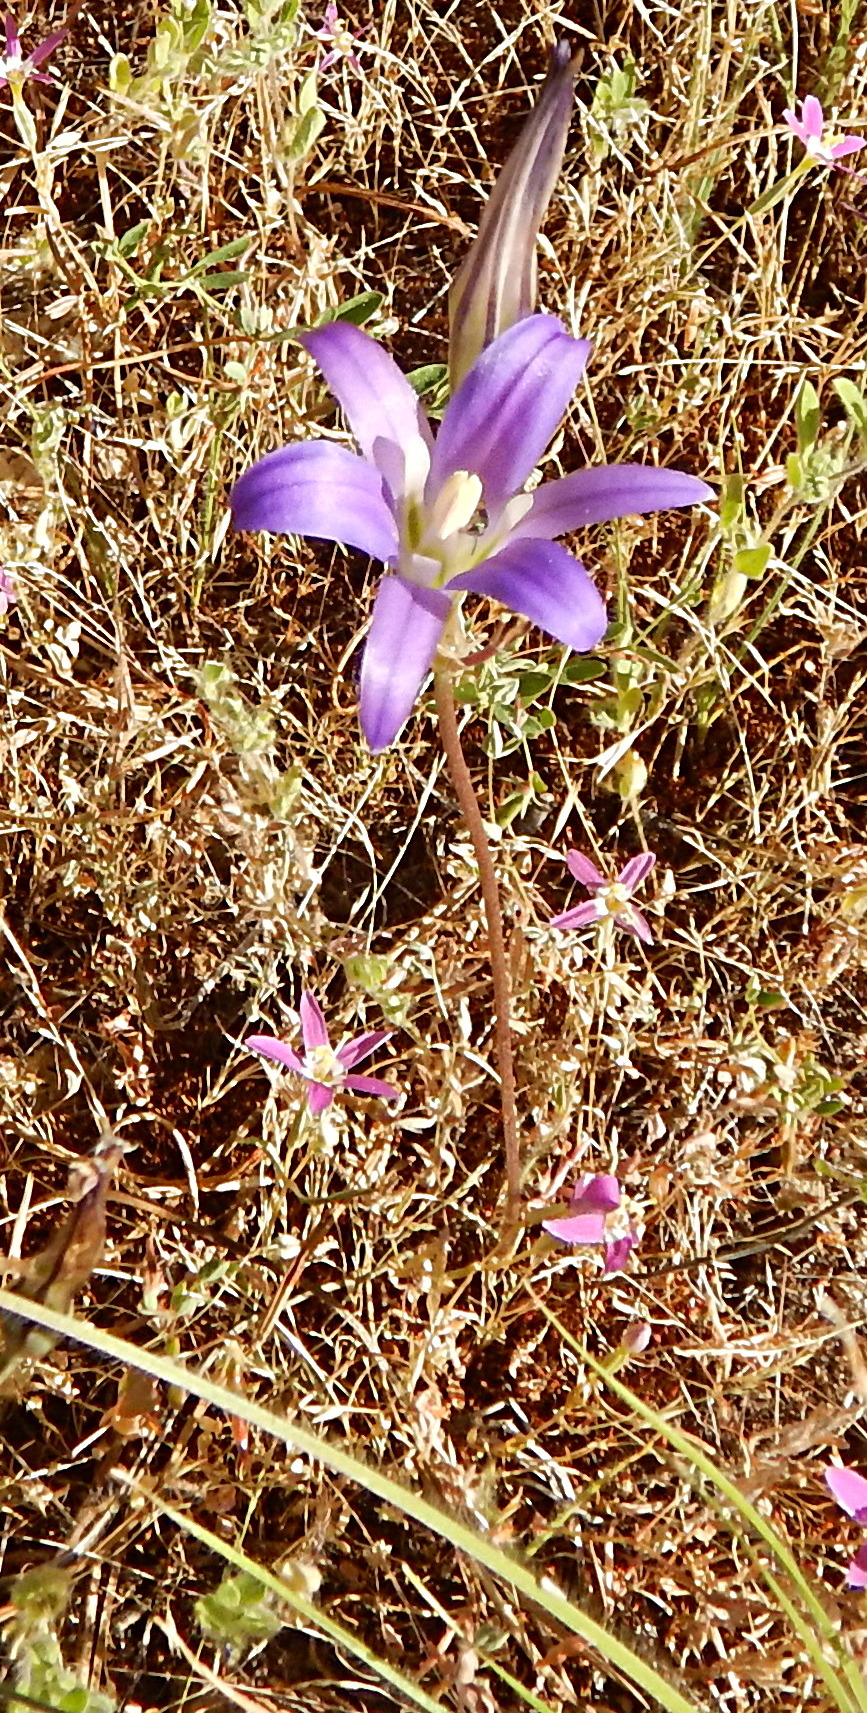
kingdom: Plantae
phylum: Tracheophyta
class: Liliopsida
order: Asparagales
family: Asparagaceae
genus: Brodiaea
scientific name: Brodiaea elegans
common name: Elegant cluster-lily
